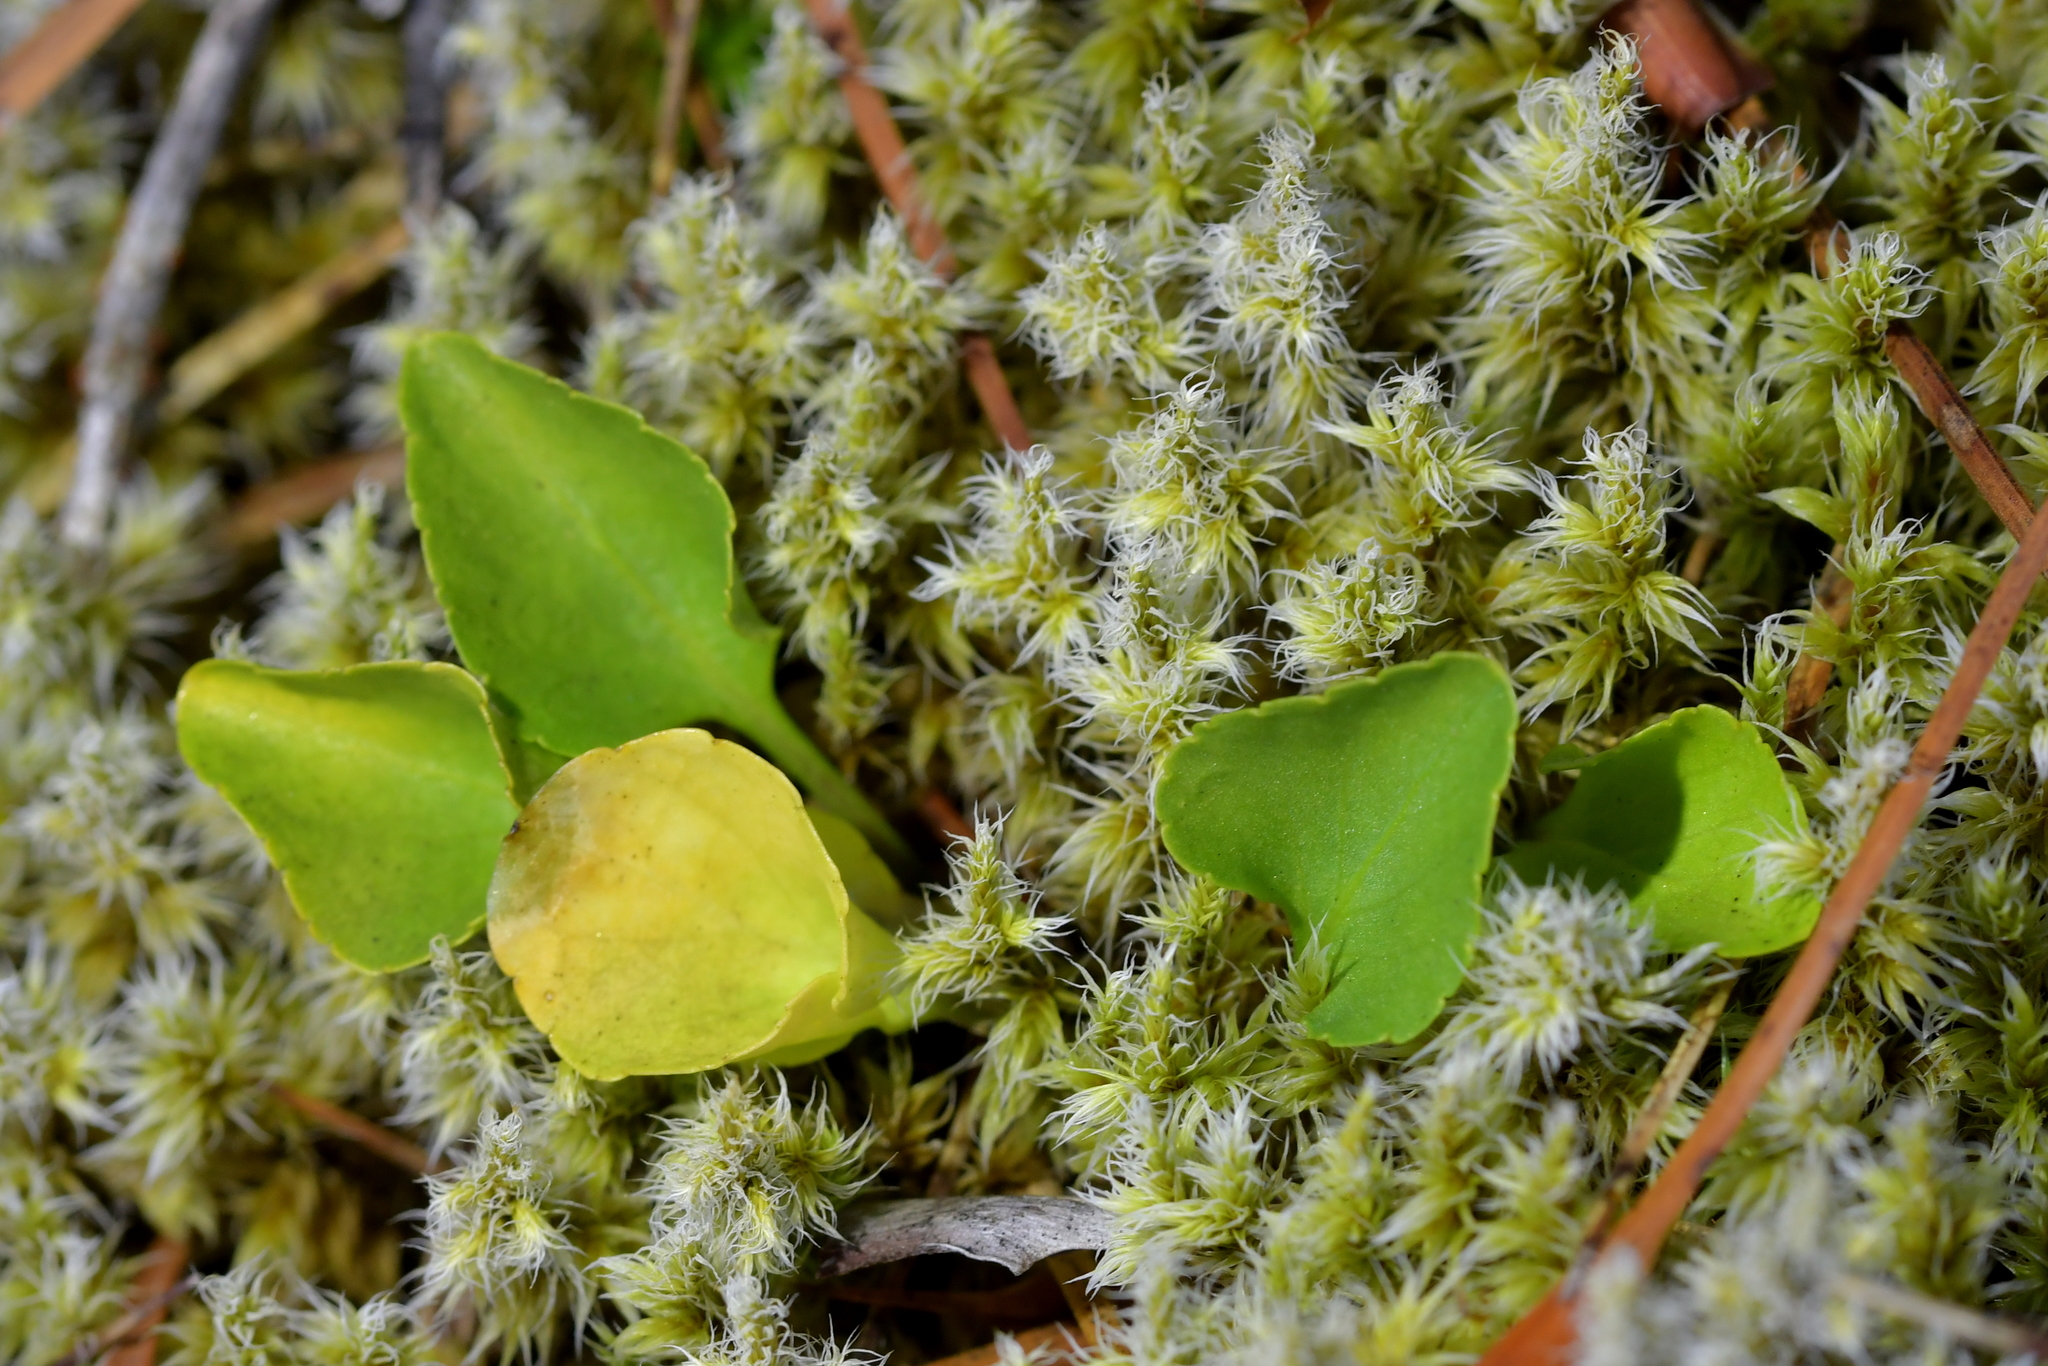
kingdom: Plantae
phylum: Tracheophyta
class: Magnoliopsida
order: Malpighiales
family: Violaceae
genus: Viola
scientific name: Viola cunninghamii
